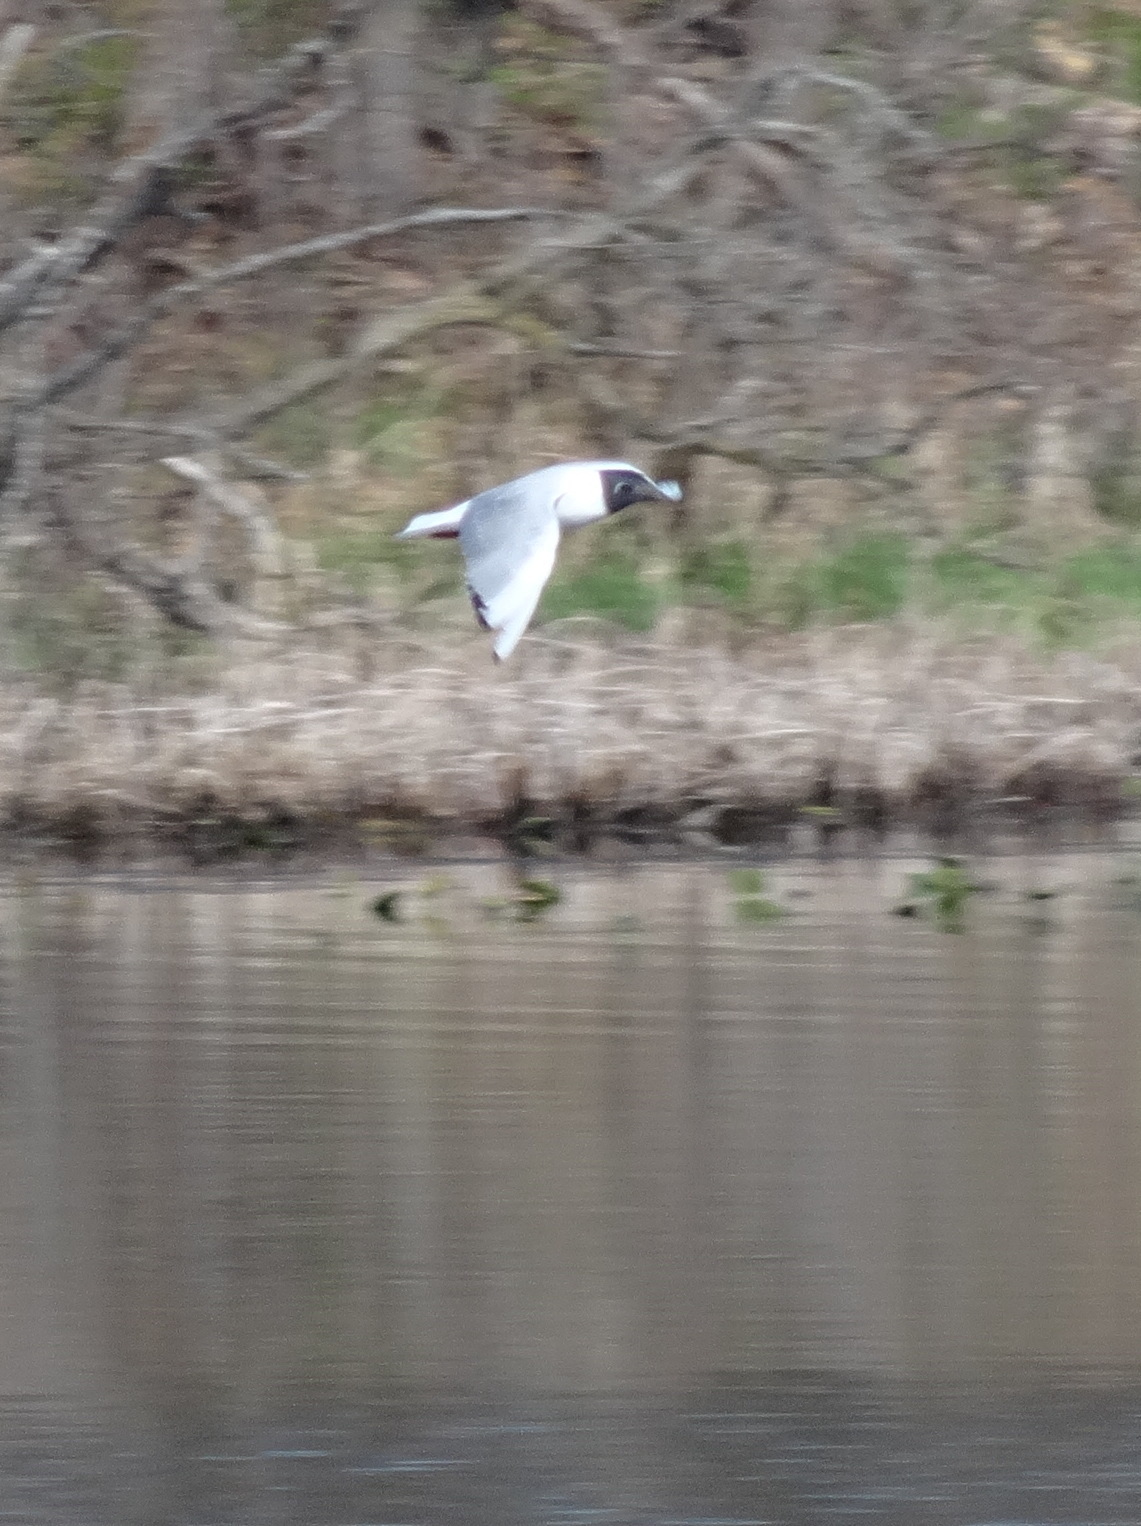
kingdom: Animalia
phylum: Chordata
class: Aves
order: Charadriiformes
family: Laridae
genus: Chroicocephalus
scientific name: Chroicocephalus philadelphia
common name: Bonaparte's gull
